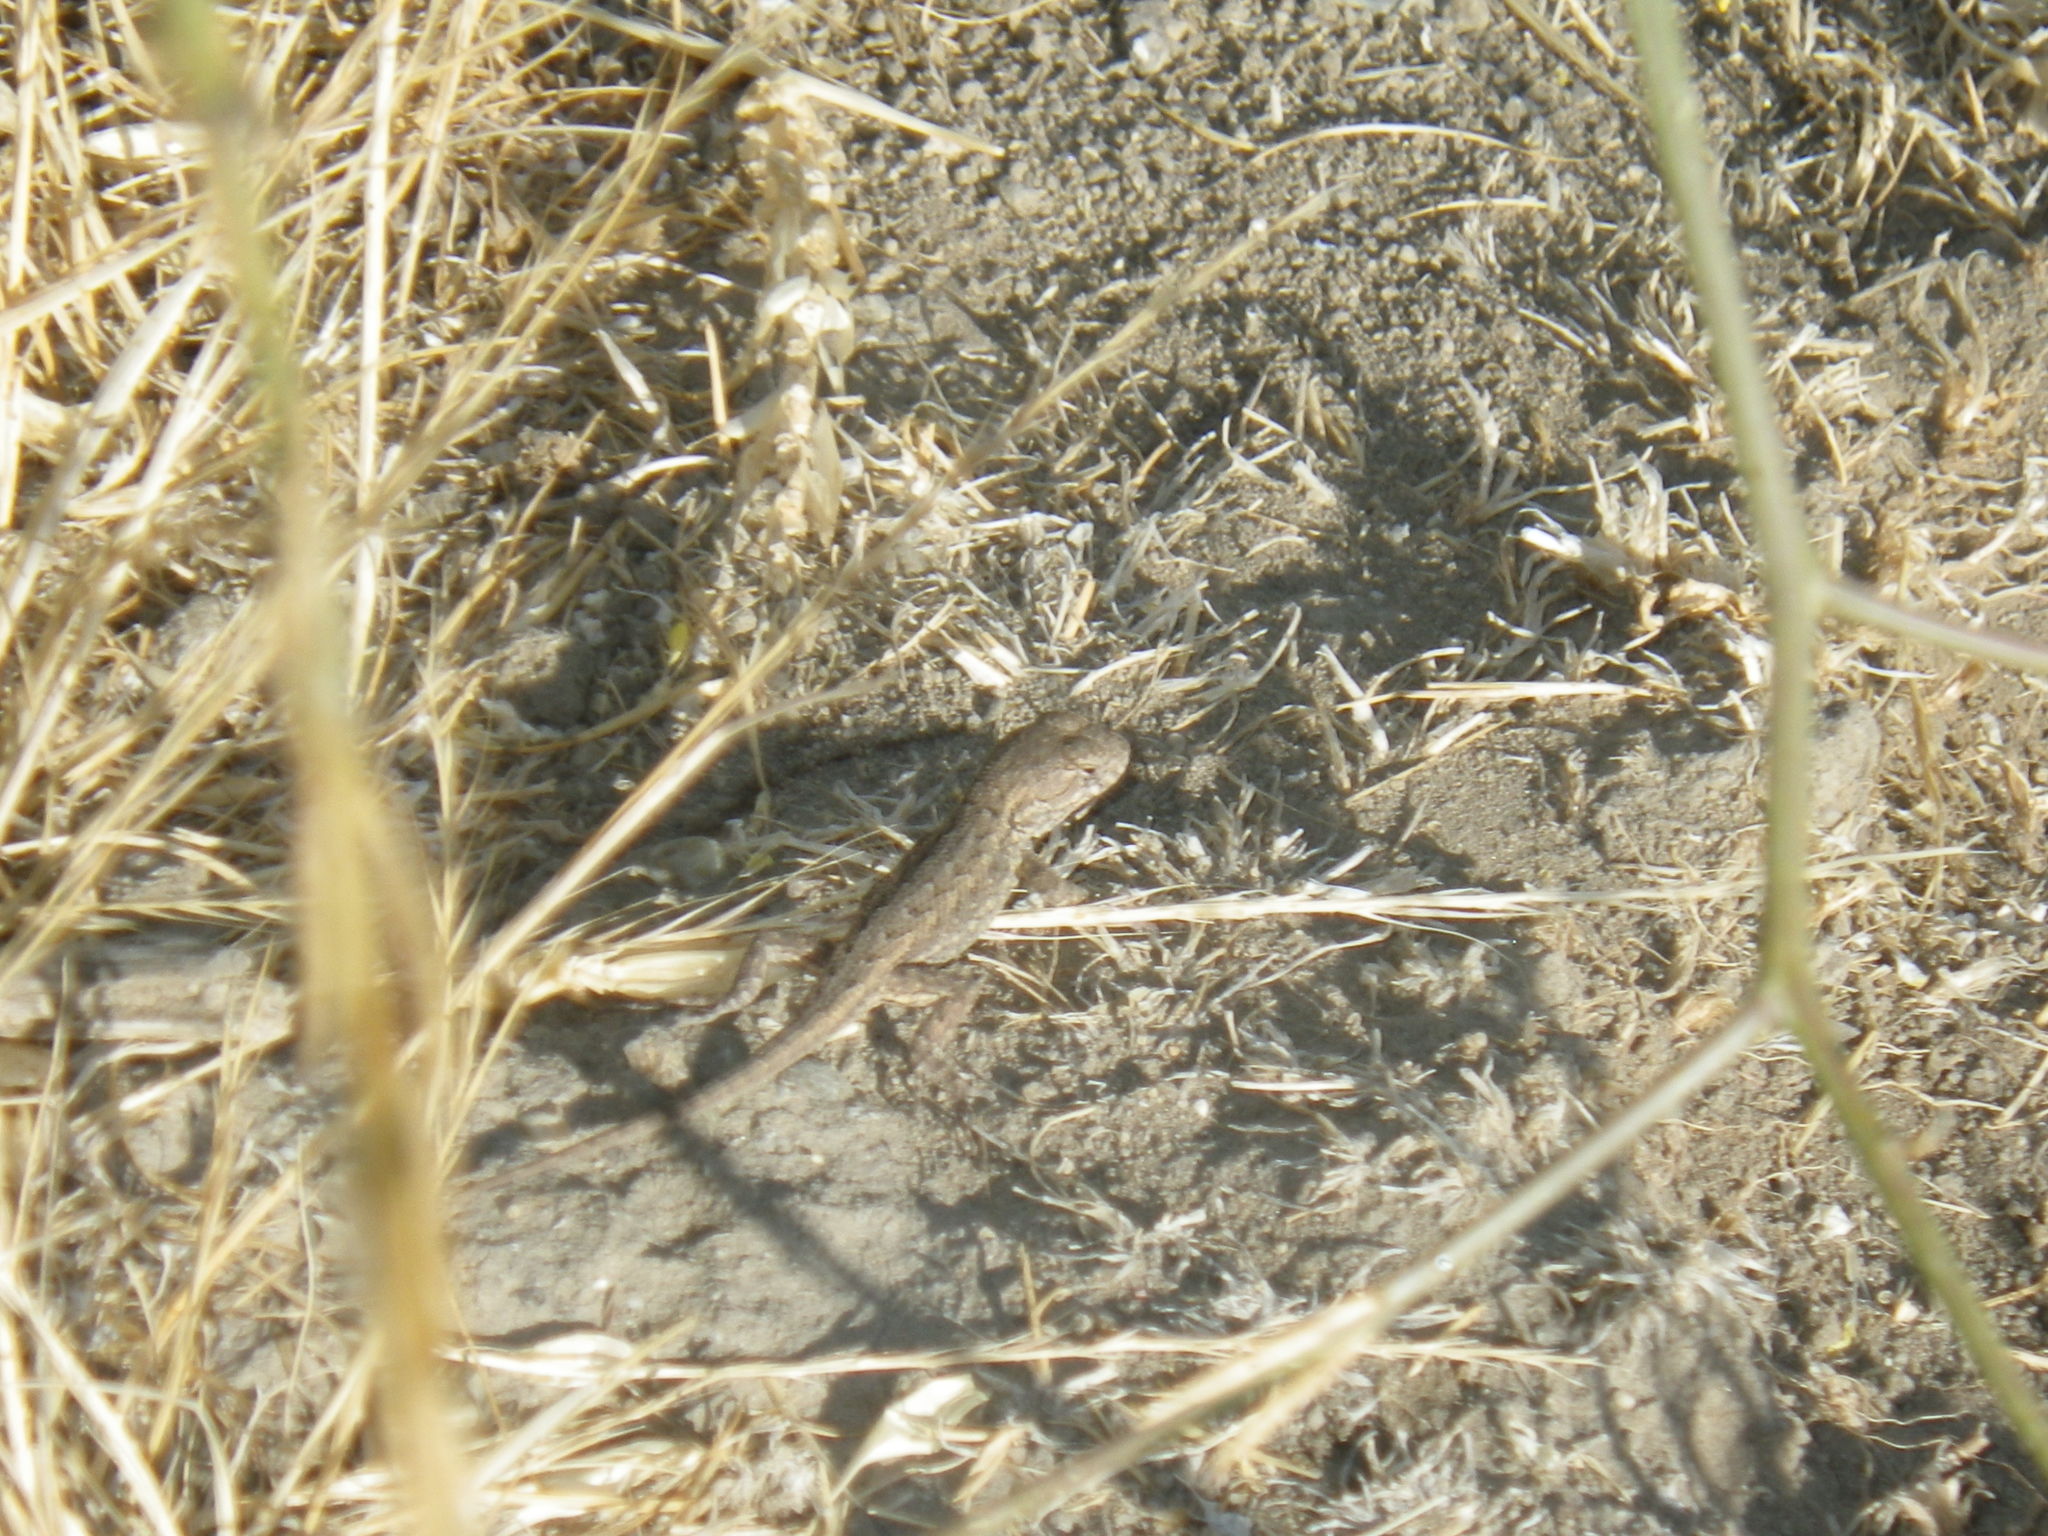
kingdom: Animalia
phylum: Chordata
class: Squamata
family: Phrynosomatidae
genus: Sceloporus
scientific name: Sceloporus occidentalis
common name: Western fence lizard
